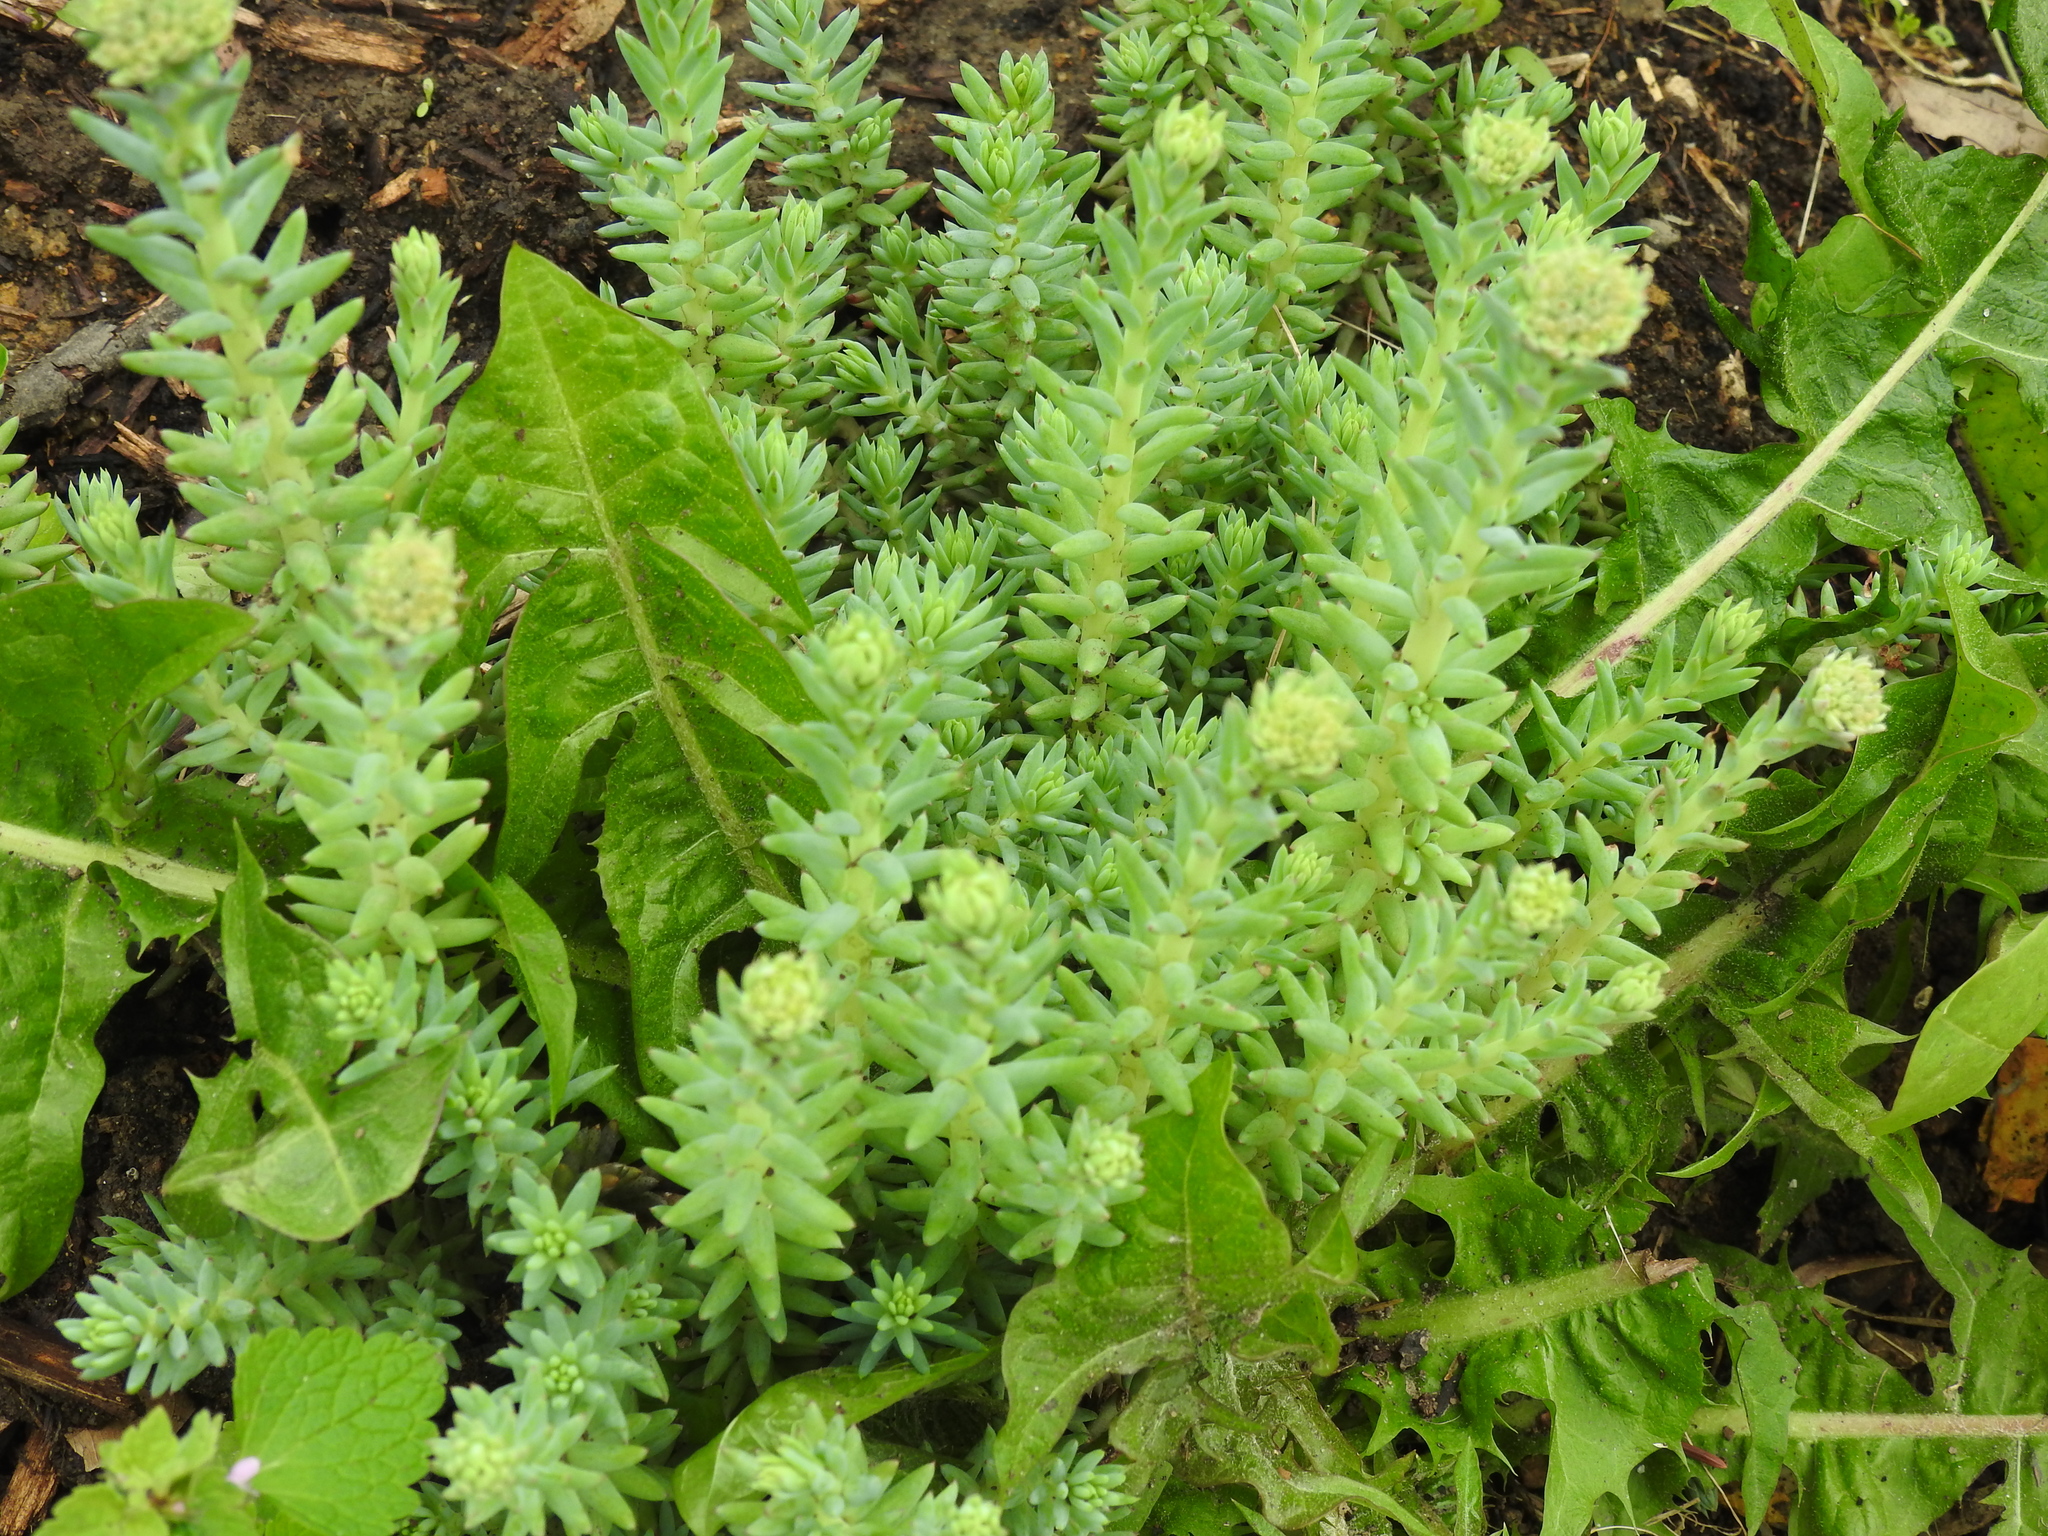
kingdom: Plantae
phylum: Tracheophyta
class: Magnoliopsida
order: Saxifragales
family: Crassulaceae
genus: Petrosedum
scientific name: Petrosedum orientale
